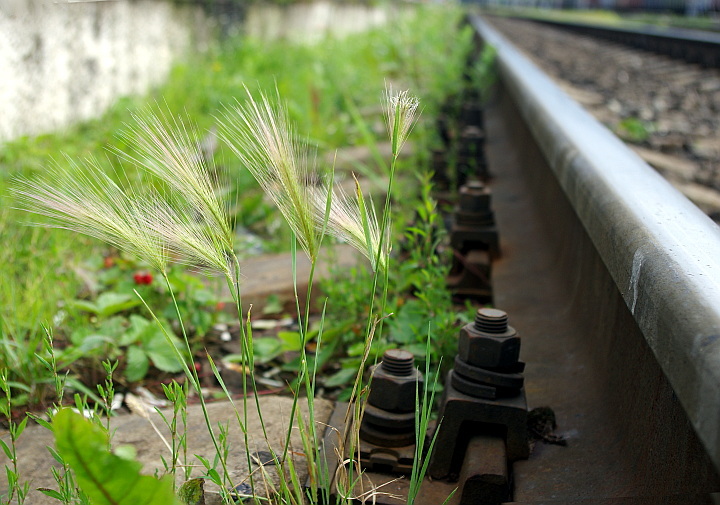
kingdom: Plantae
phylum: Tracheophyta
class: Liliopsida
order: Poales
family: Poaceae
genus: Hordeum
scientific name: Hordeum jubatum
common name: Foxtail barley
